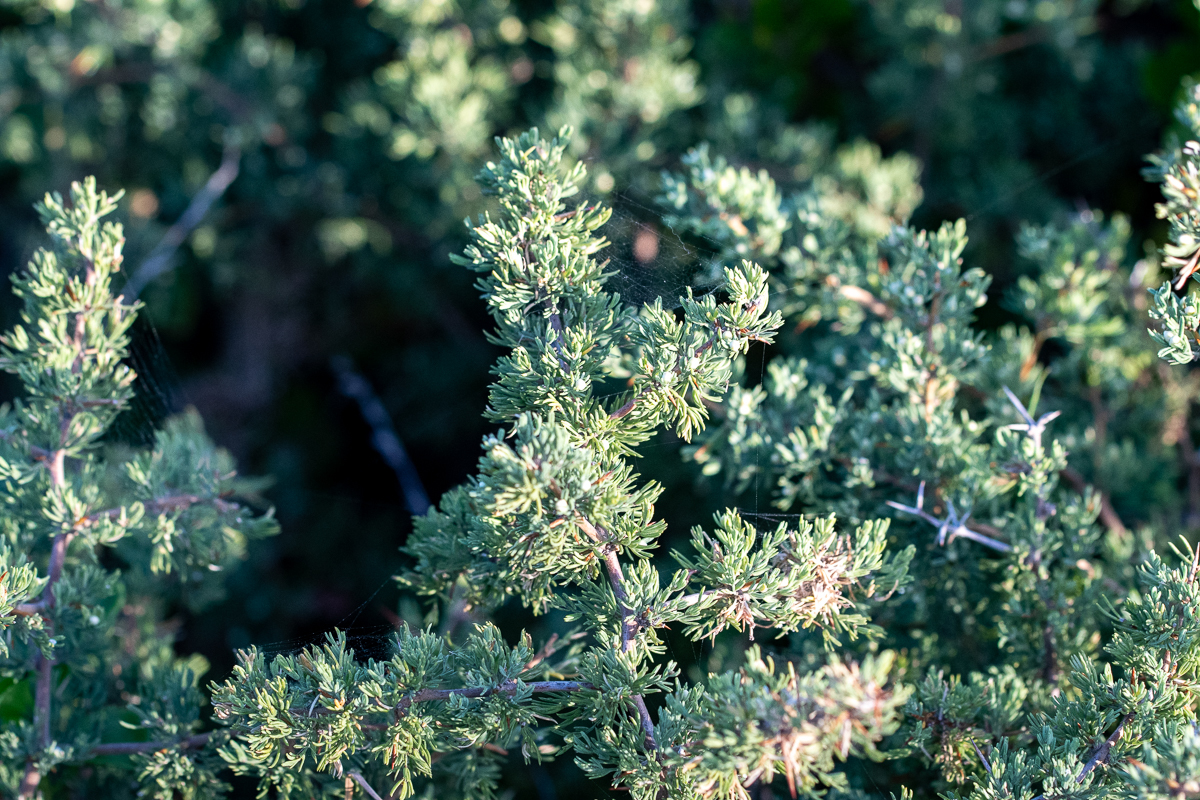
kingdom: Plantae
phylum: Tracheophyta
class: Liliopsida
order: Asparagales
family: Asparagaceae
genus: Asparagus
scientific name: Asparagus capensis
